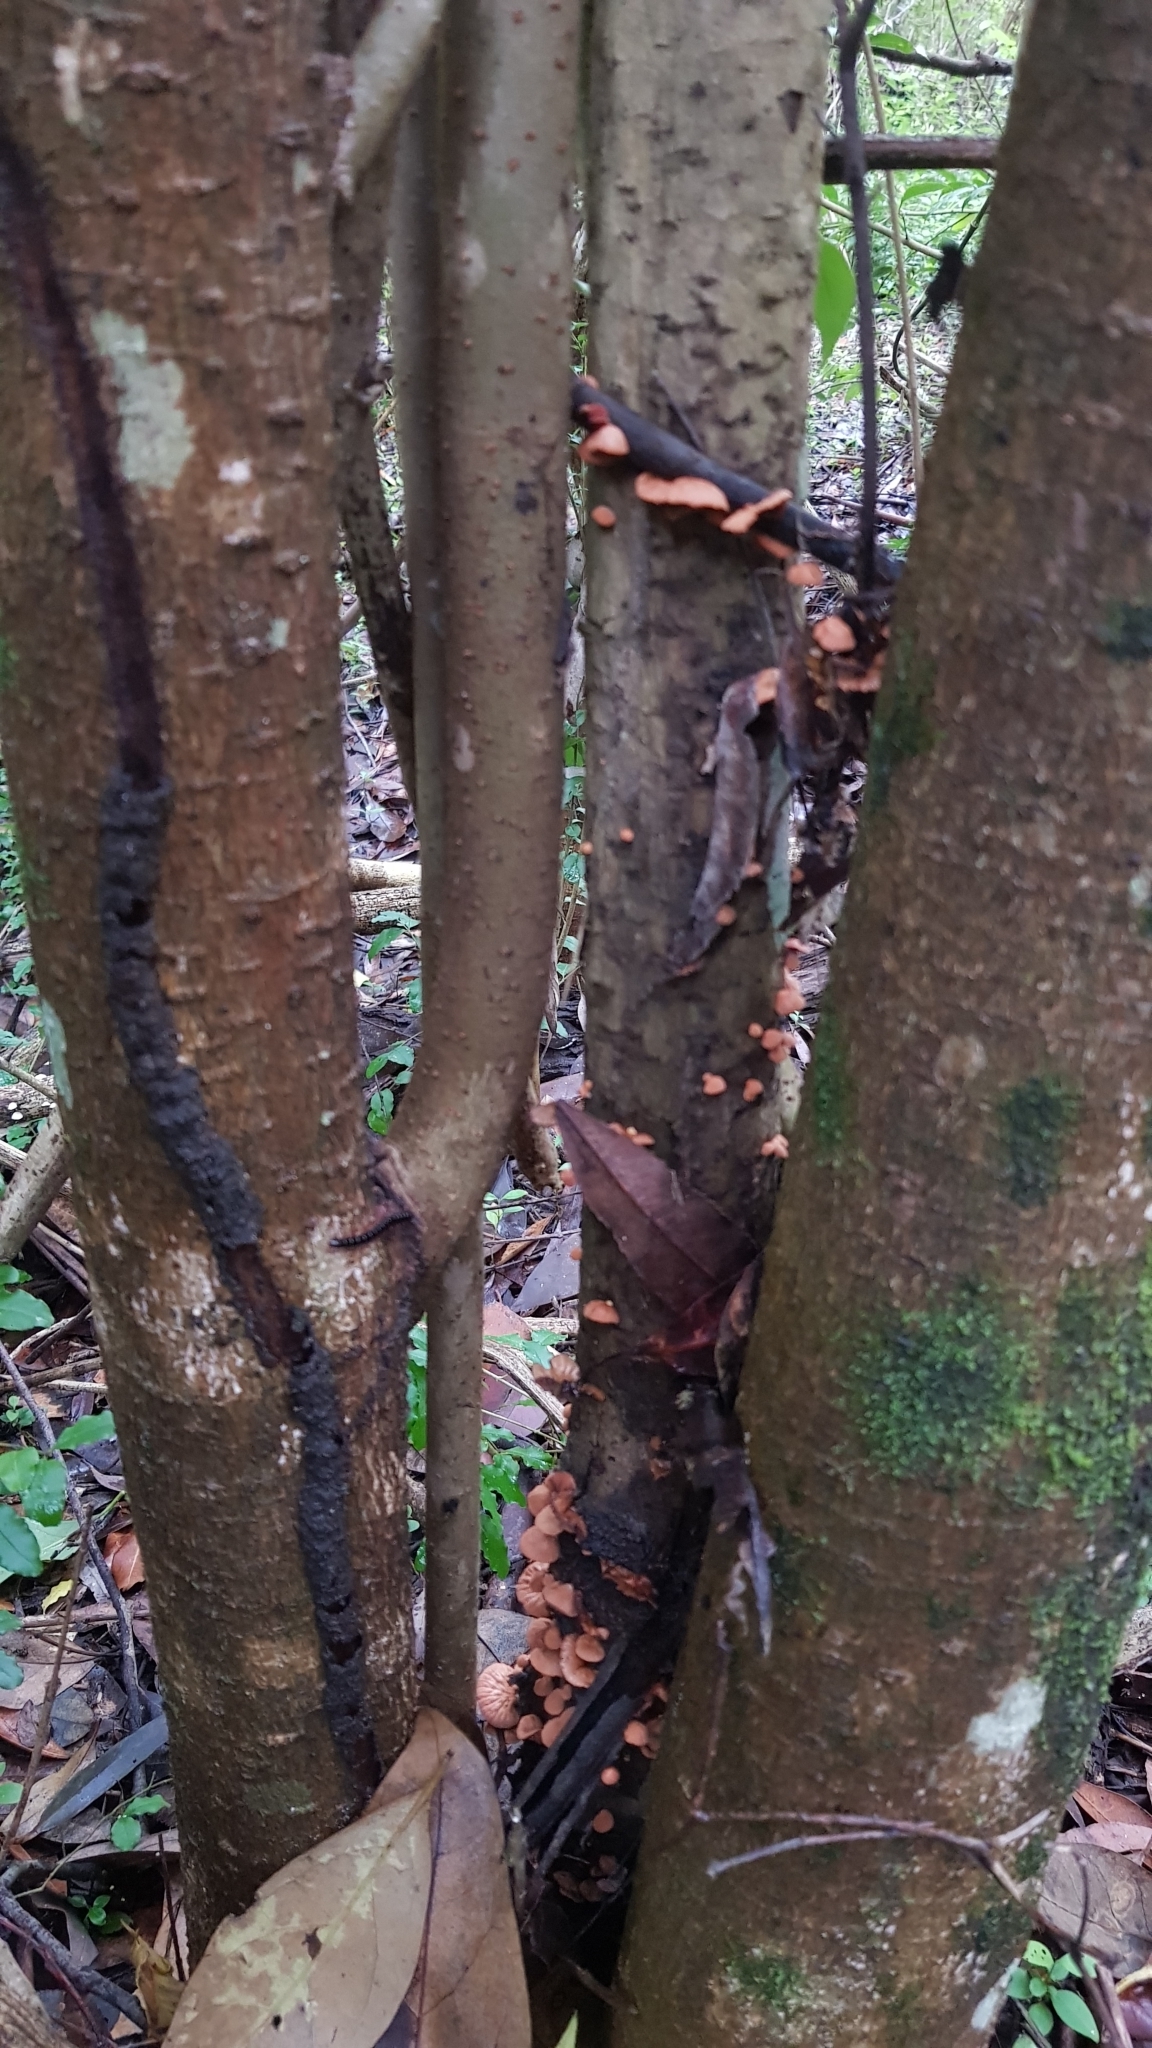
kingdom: Fungi
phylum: Basidiomycota
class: Agaricomycetes
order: Agaricales
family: Omphalotaceae
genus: Anthracophyllum
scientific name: Anthracophyllum archeri
